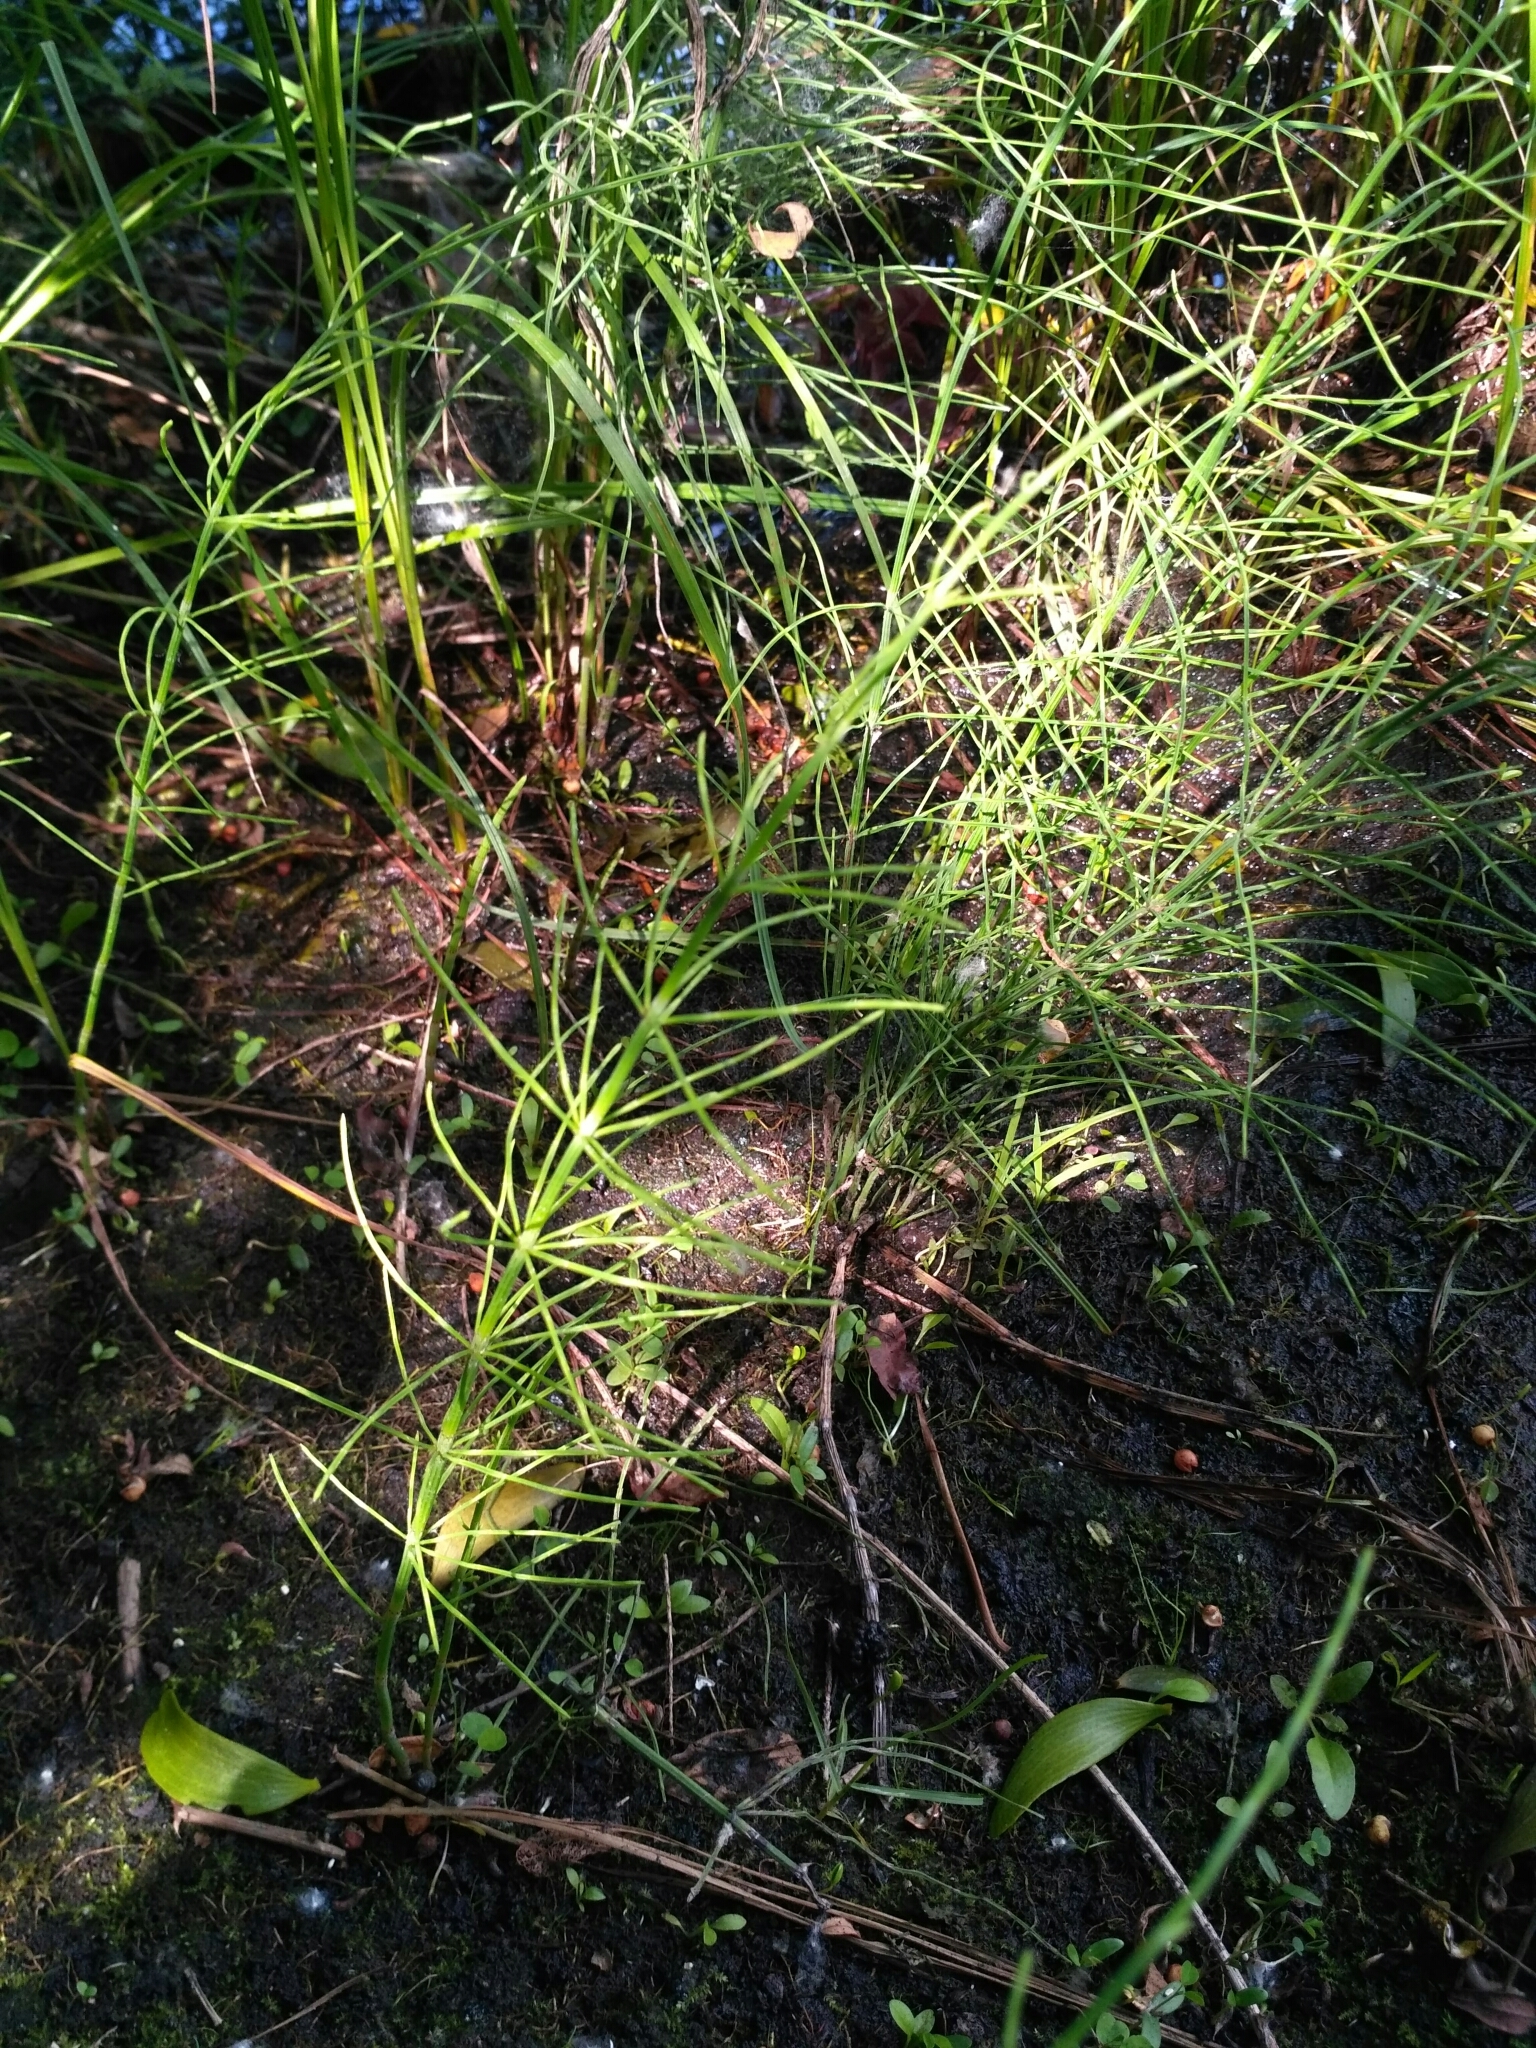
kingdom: Plantae
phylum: Tracheophyta
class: Polypodiopsida
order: Equisetales
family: Equisetaceae
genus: Equisetum
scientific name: Equisetum arvense
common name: Field horsetail
